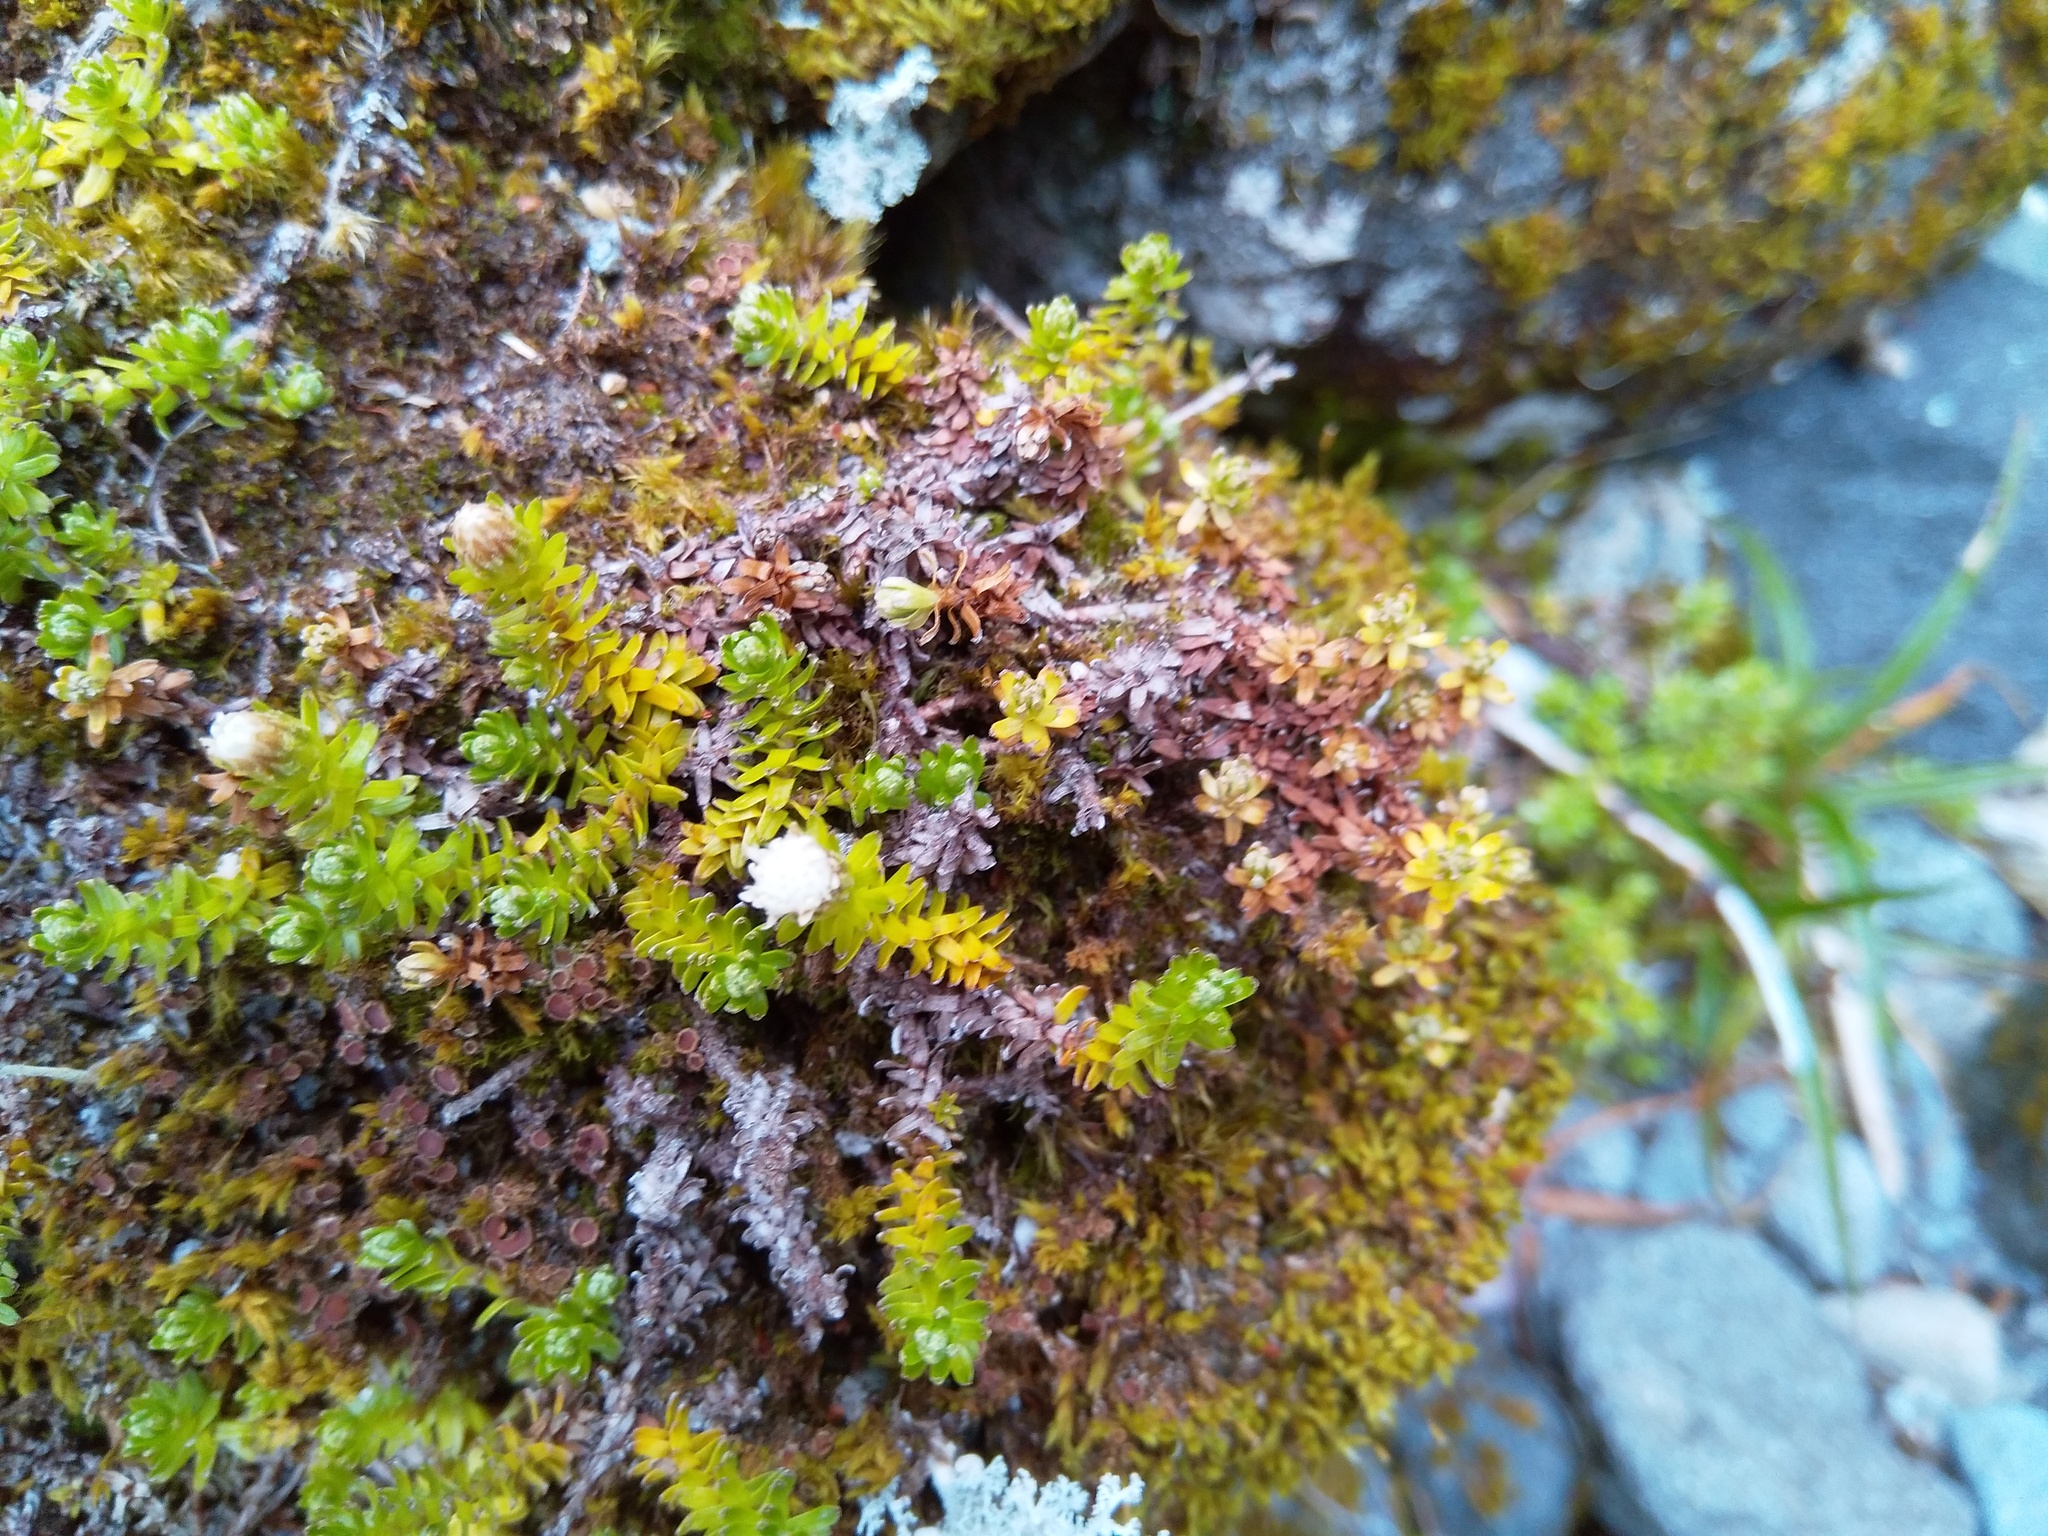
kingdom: Plantae
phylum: Tracheophyta
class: Magnoliopsida
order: Asterales
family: Asteraceae
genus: Raoulia
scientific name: Raoulia glabra
